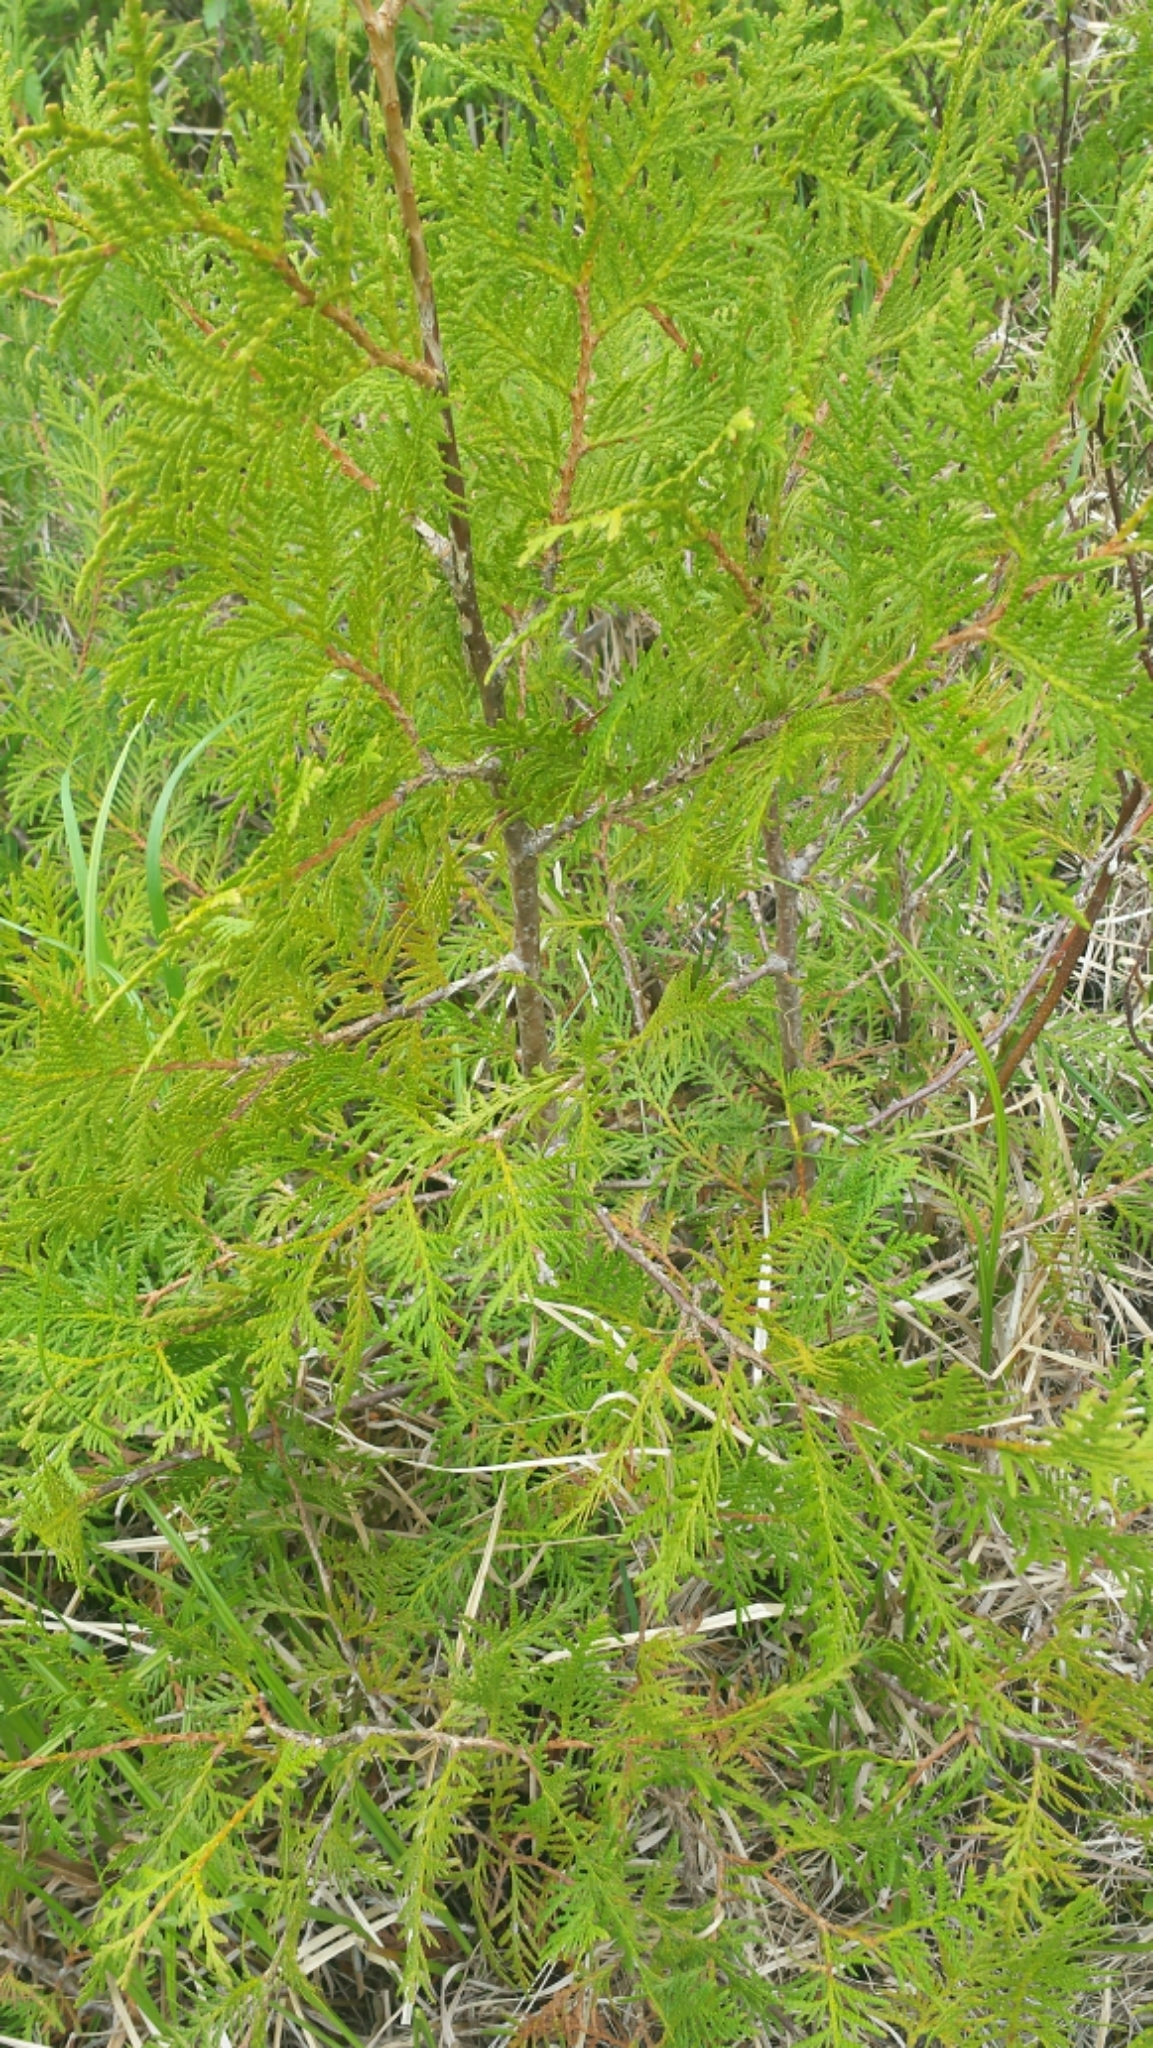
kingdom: Plantae
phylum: Tracheophyta
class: Pinopsida
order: Pinales
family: Cupressaceae
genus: Thuja
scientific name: Thuja occidentalis
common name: Northern white-cedar
